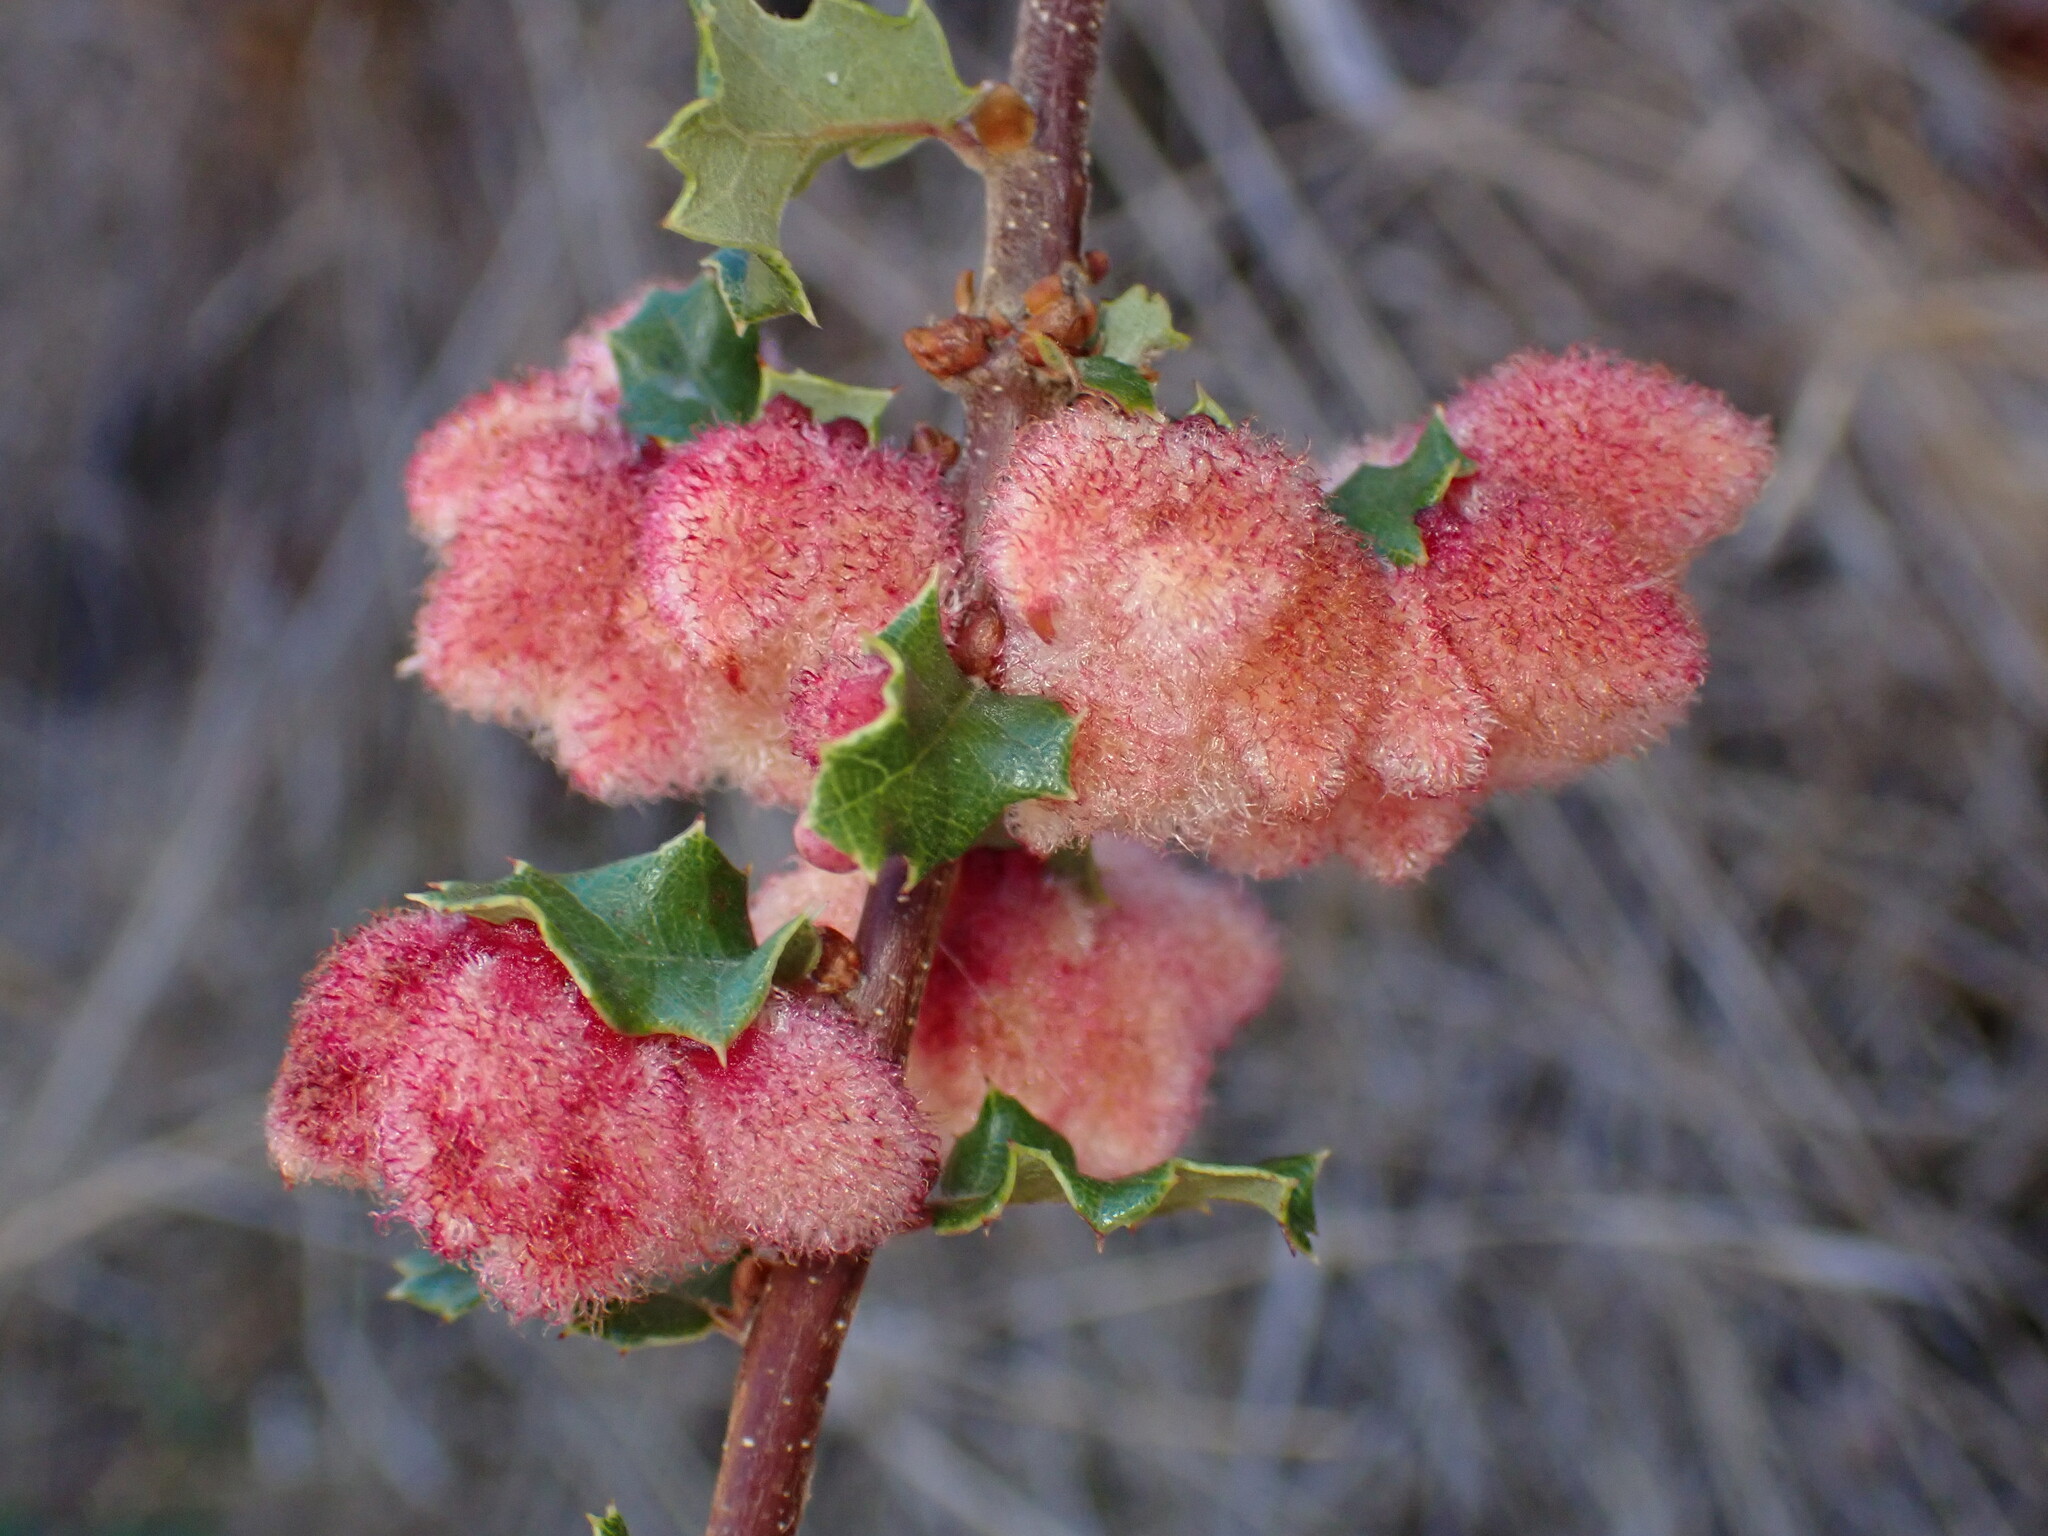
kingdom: Animalia
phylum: Arthropoda
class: Insecta
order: Hymenoptera
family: Cynipidae
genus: Andricus
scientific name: Andricus
